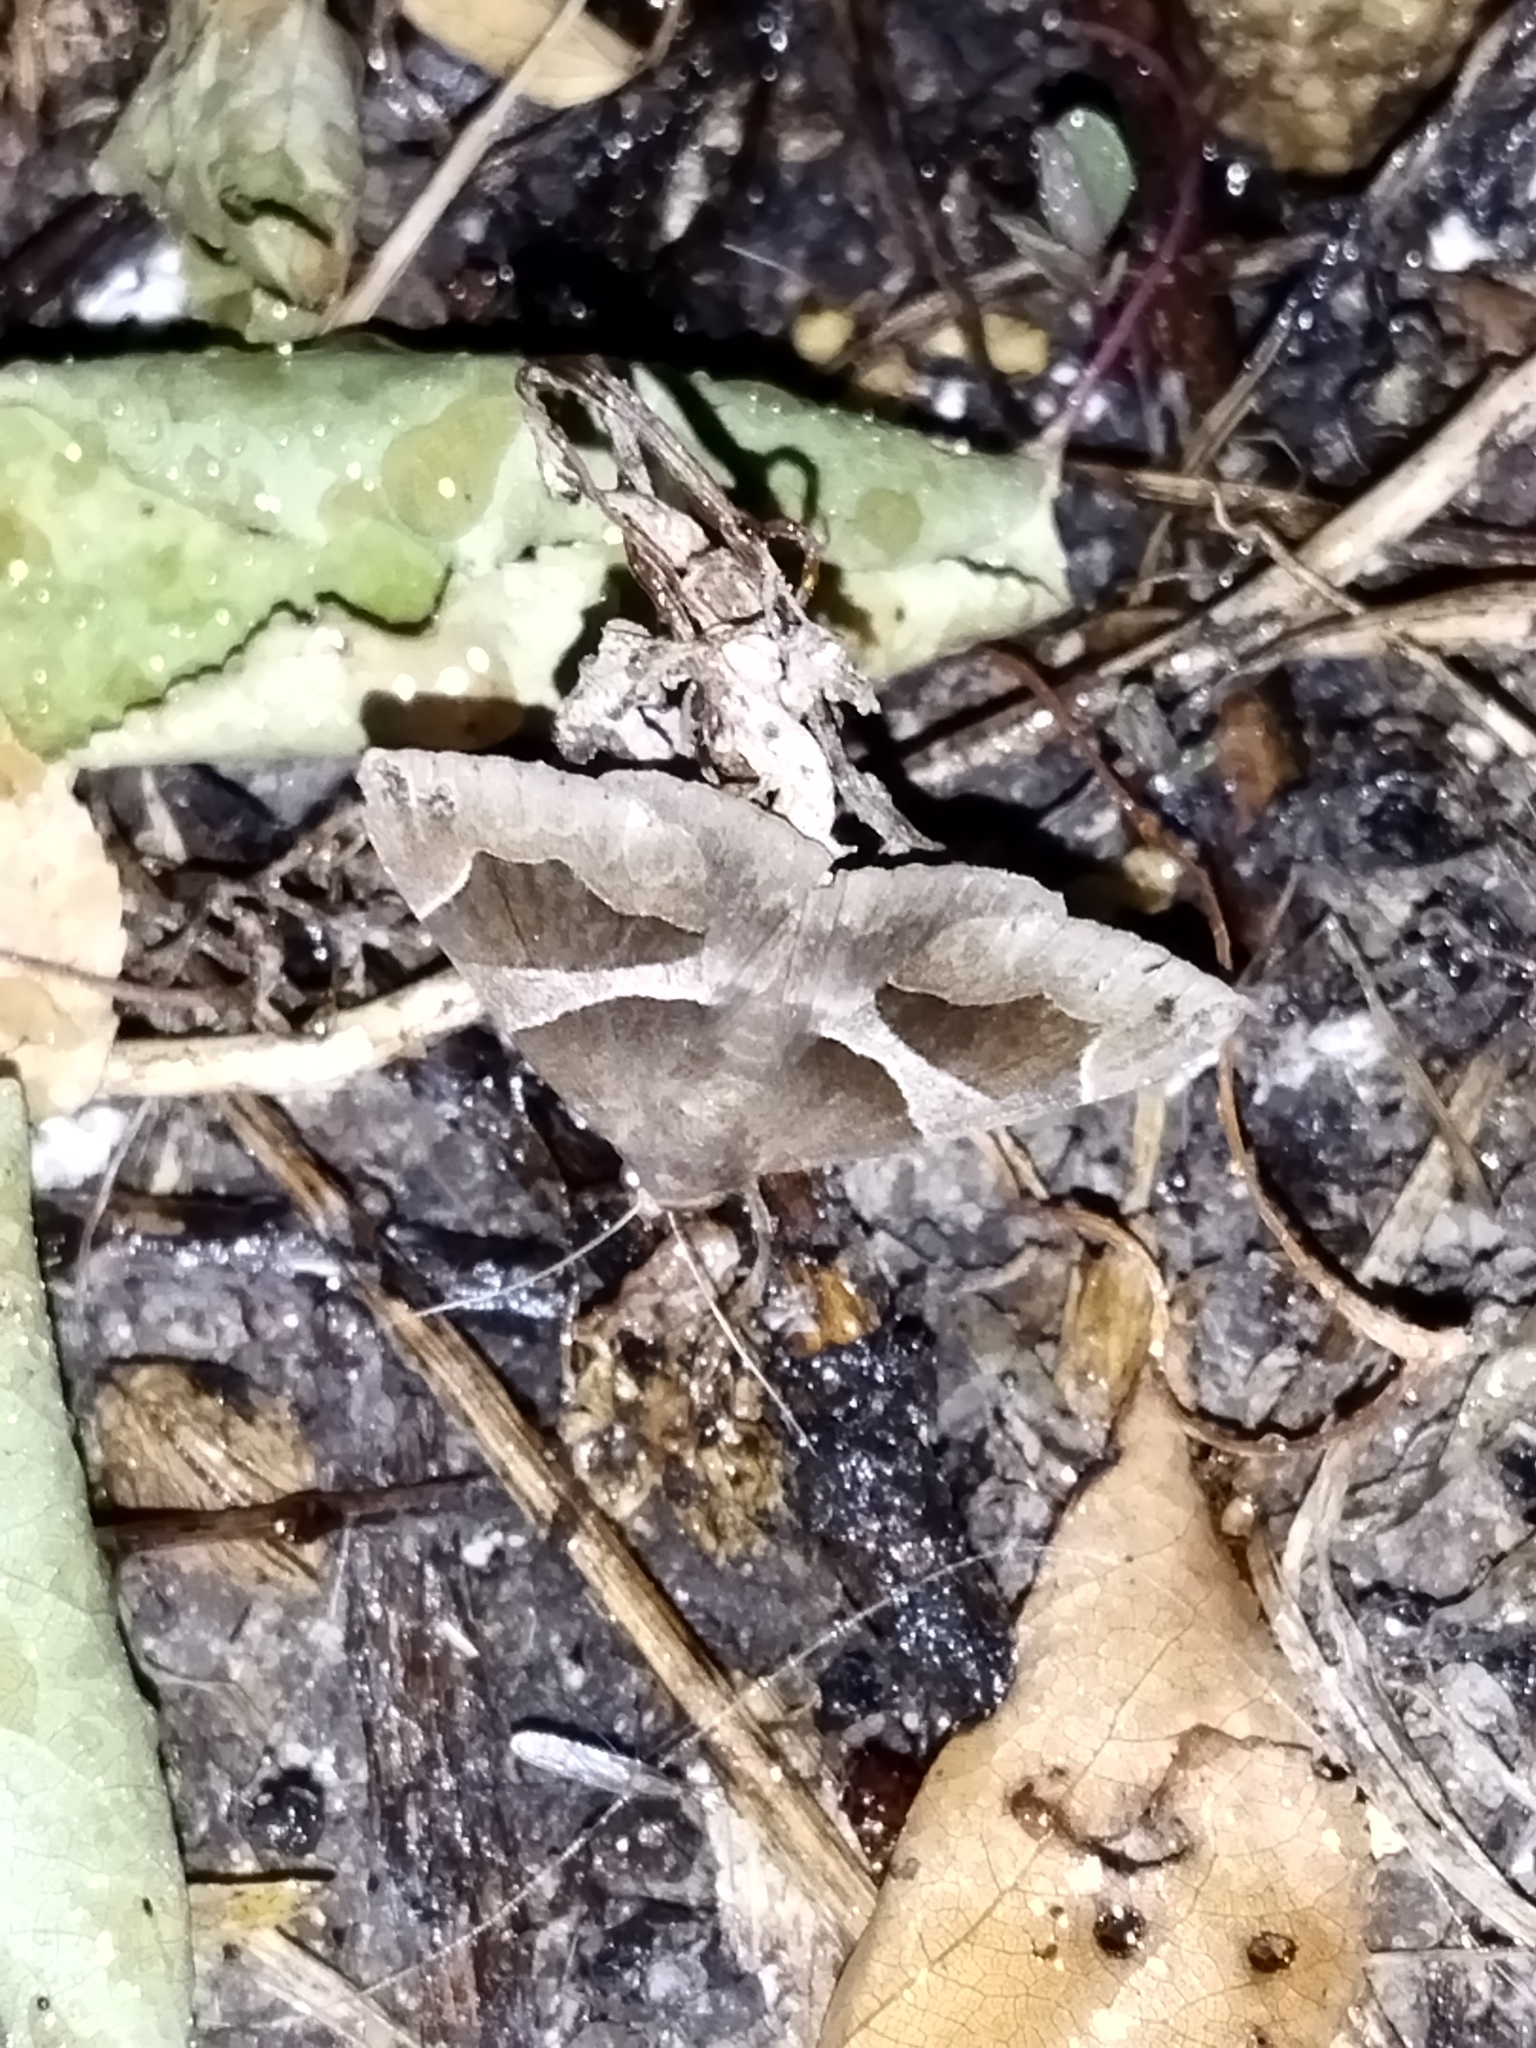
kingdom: Animalia
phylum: Arthropoda
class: Insecta
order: Lepidoptera
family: Erebidae
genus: Dysgonia
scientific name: Dysgonia algira
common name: Passenger
